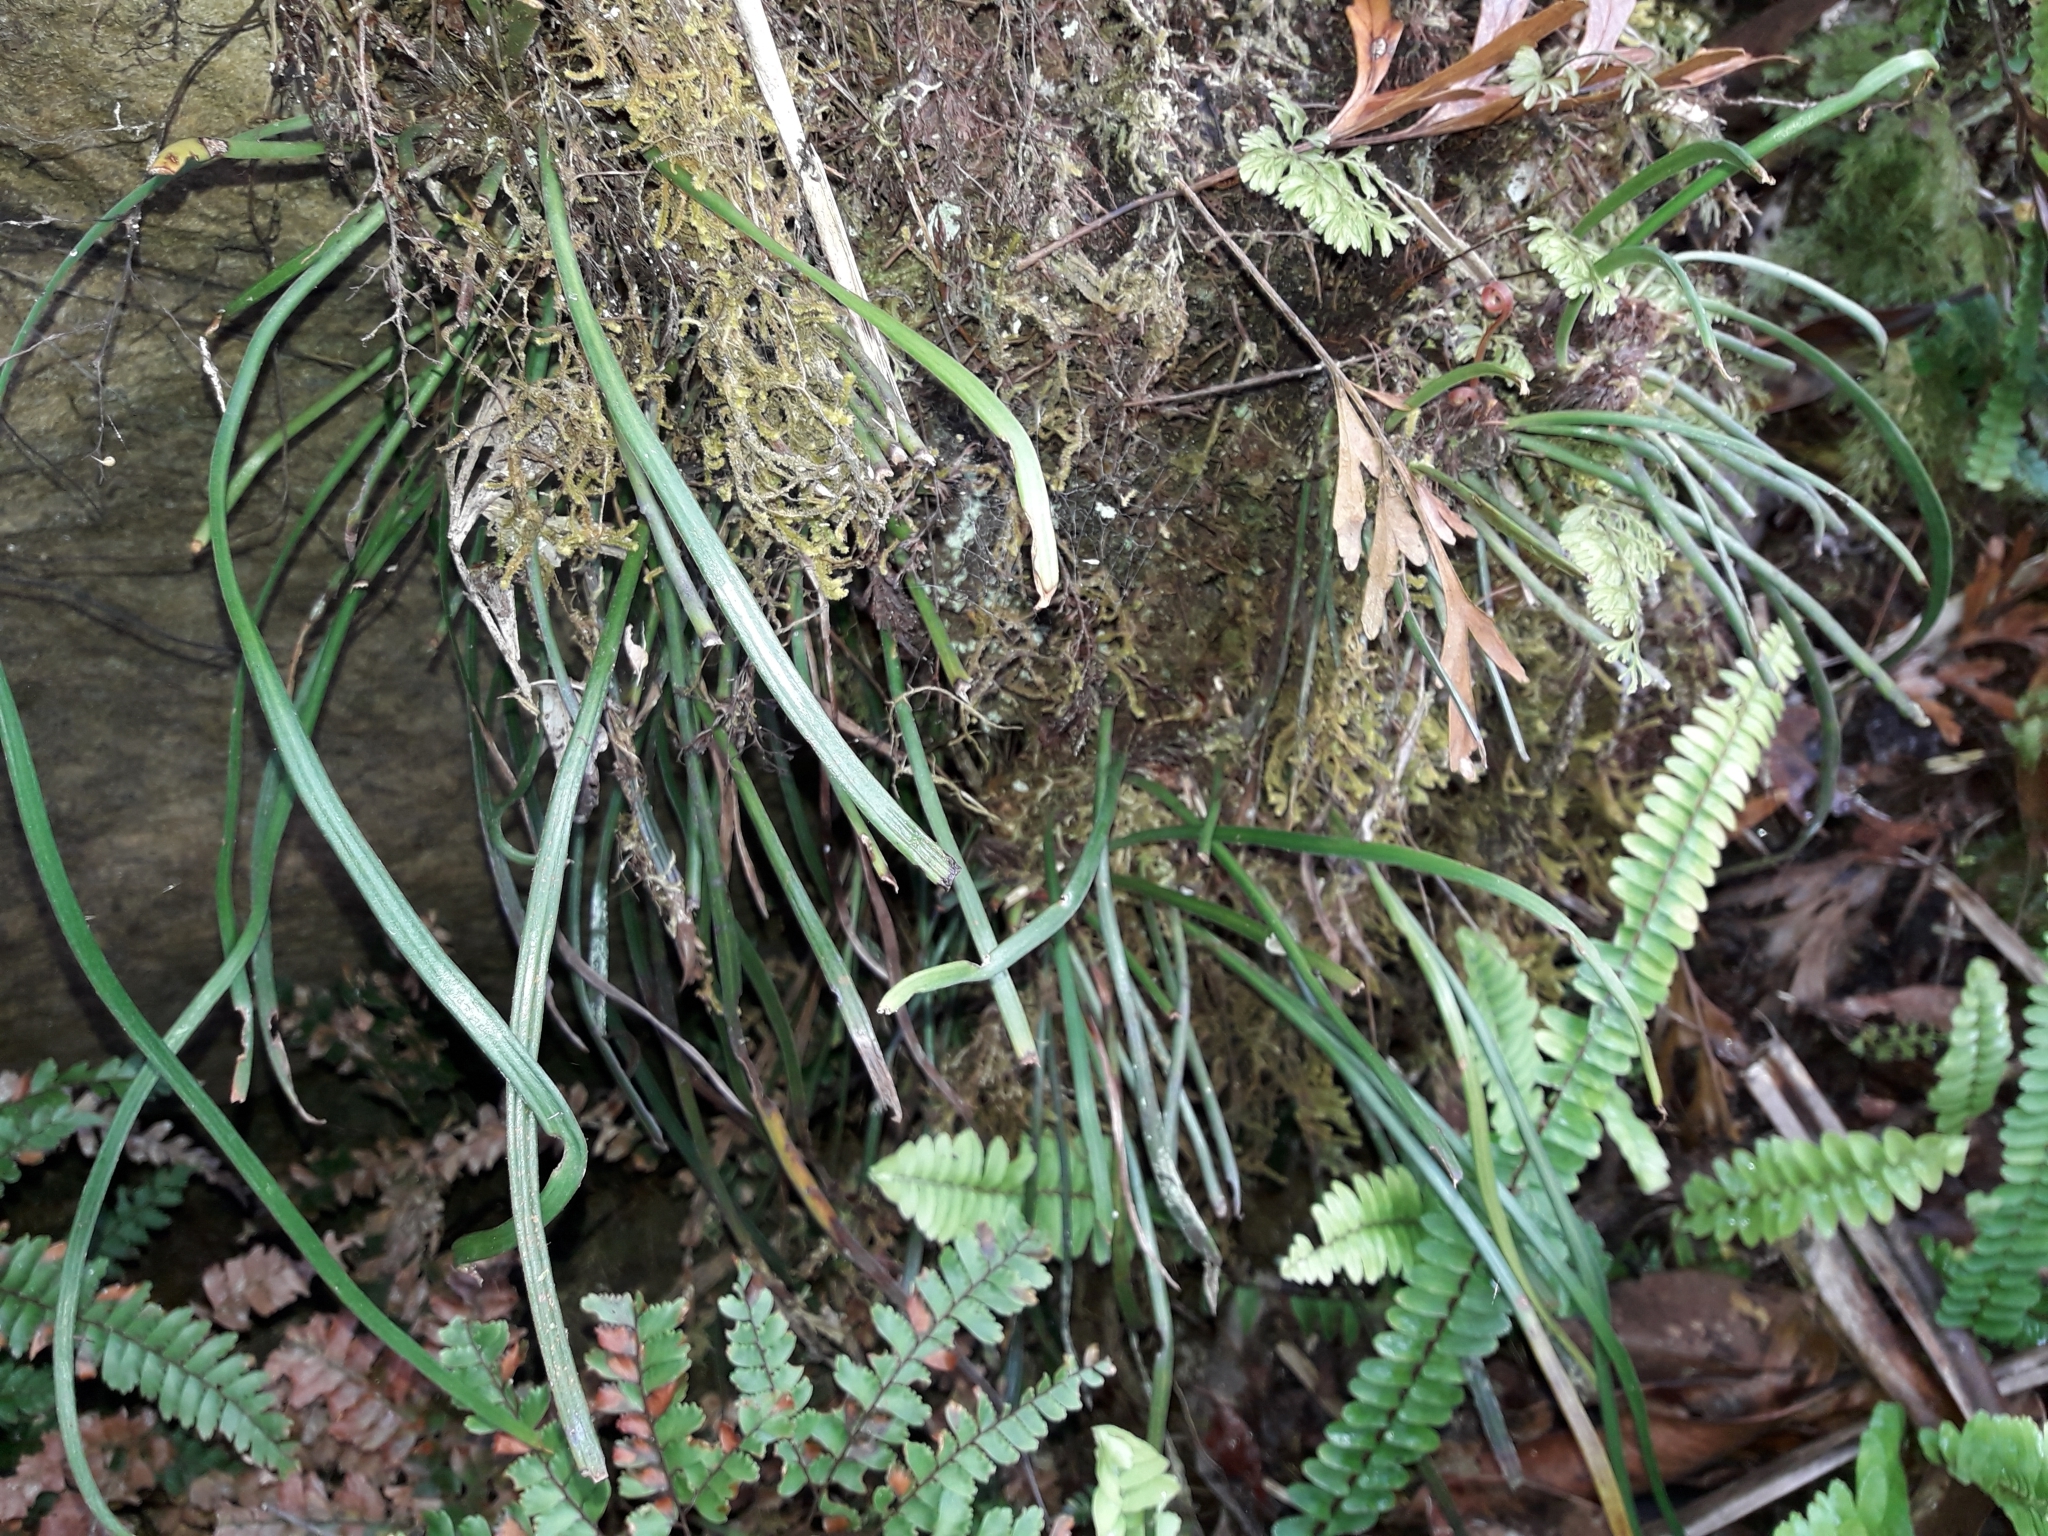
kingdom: Plantae
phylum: Tracheophyta
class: Polypodiopsida
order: Polypodiales
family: Pteridaceae
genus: Haplopteris
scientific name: Haplopteris elongata
